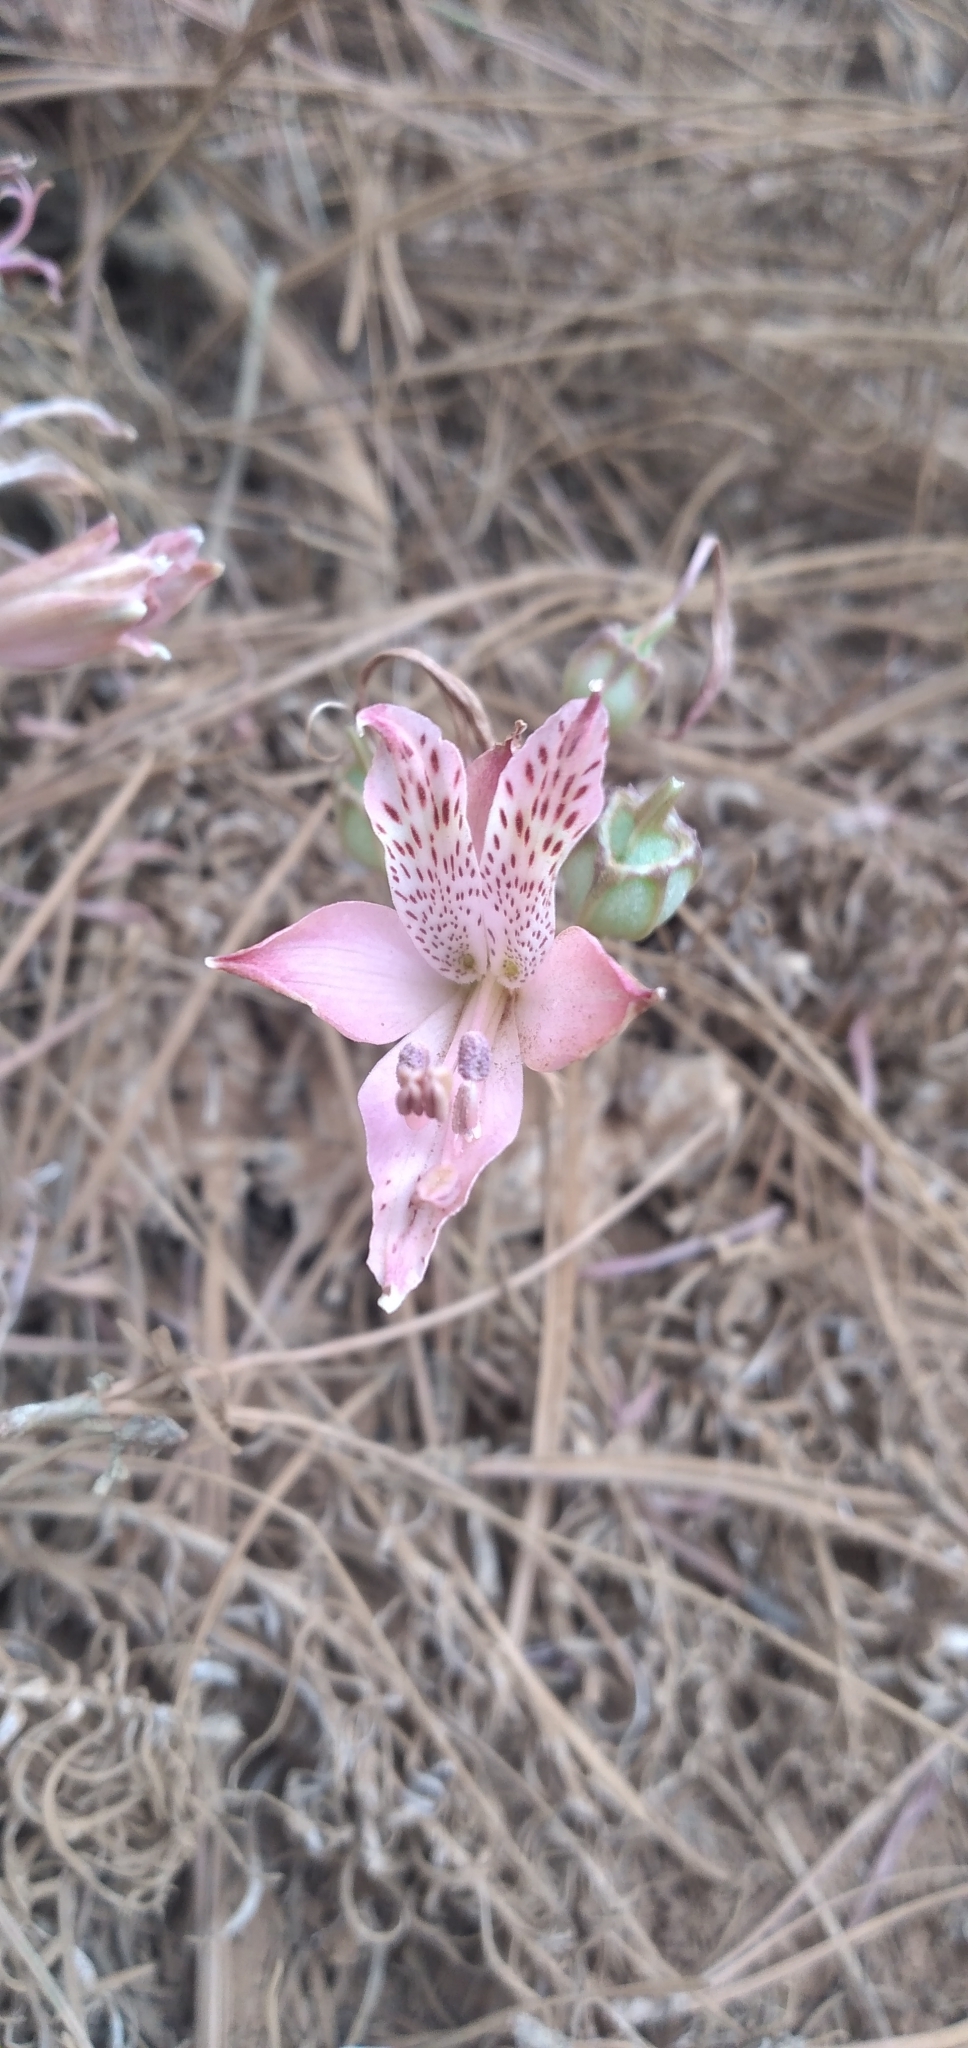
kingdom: Plantae
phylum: Tracheophyta
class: Liliopsida
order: Liliales
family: Alstroemeriaceae
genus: Alstroemeria
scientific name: Alstroemeria marticorenae
